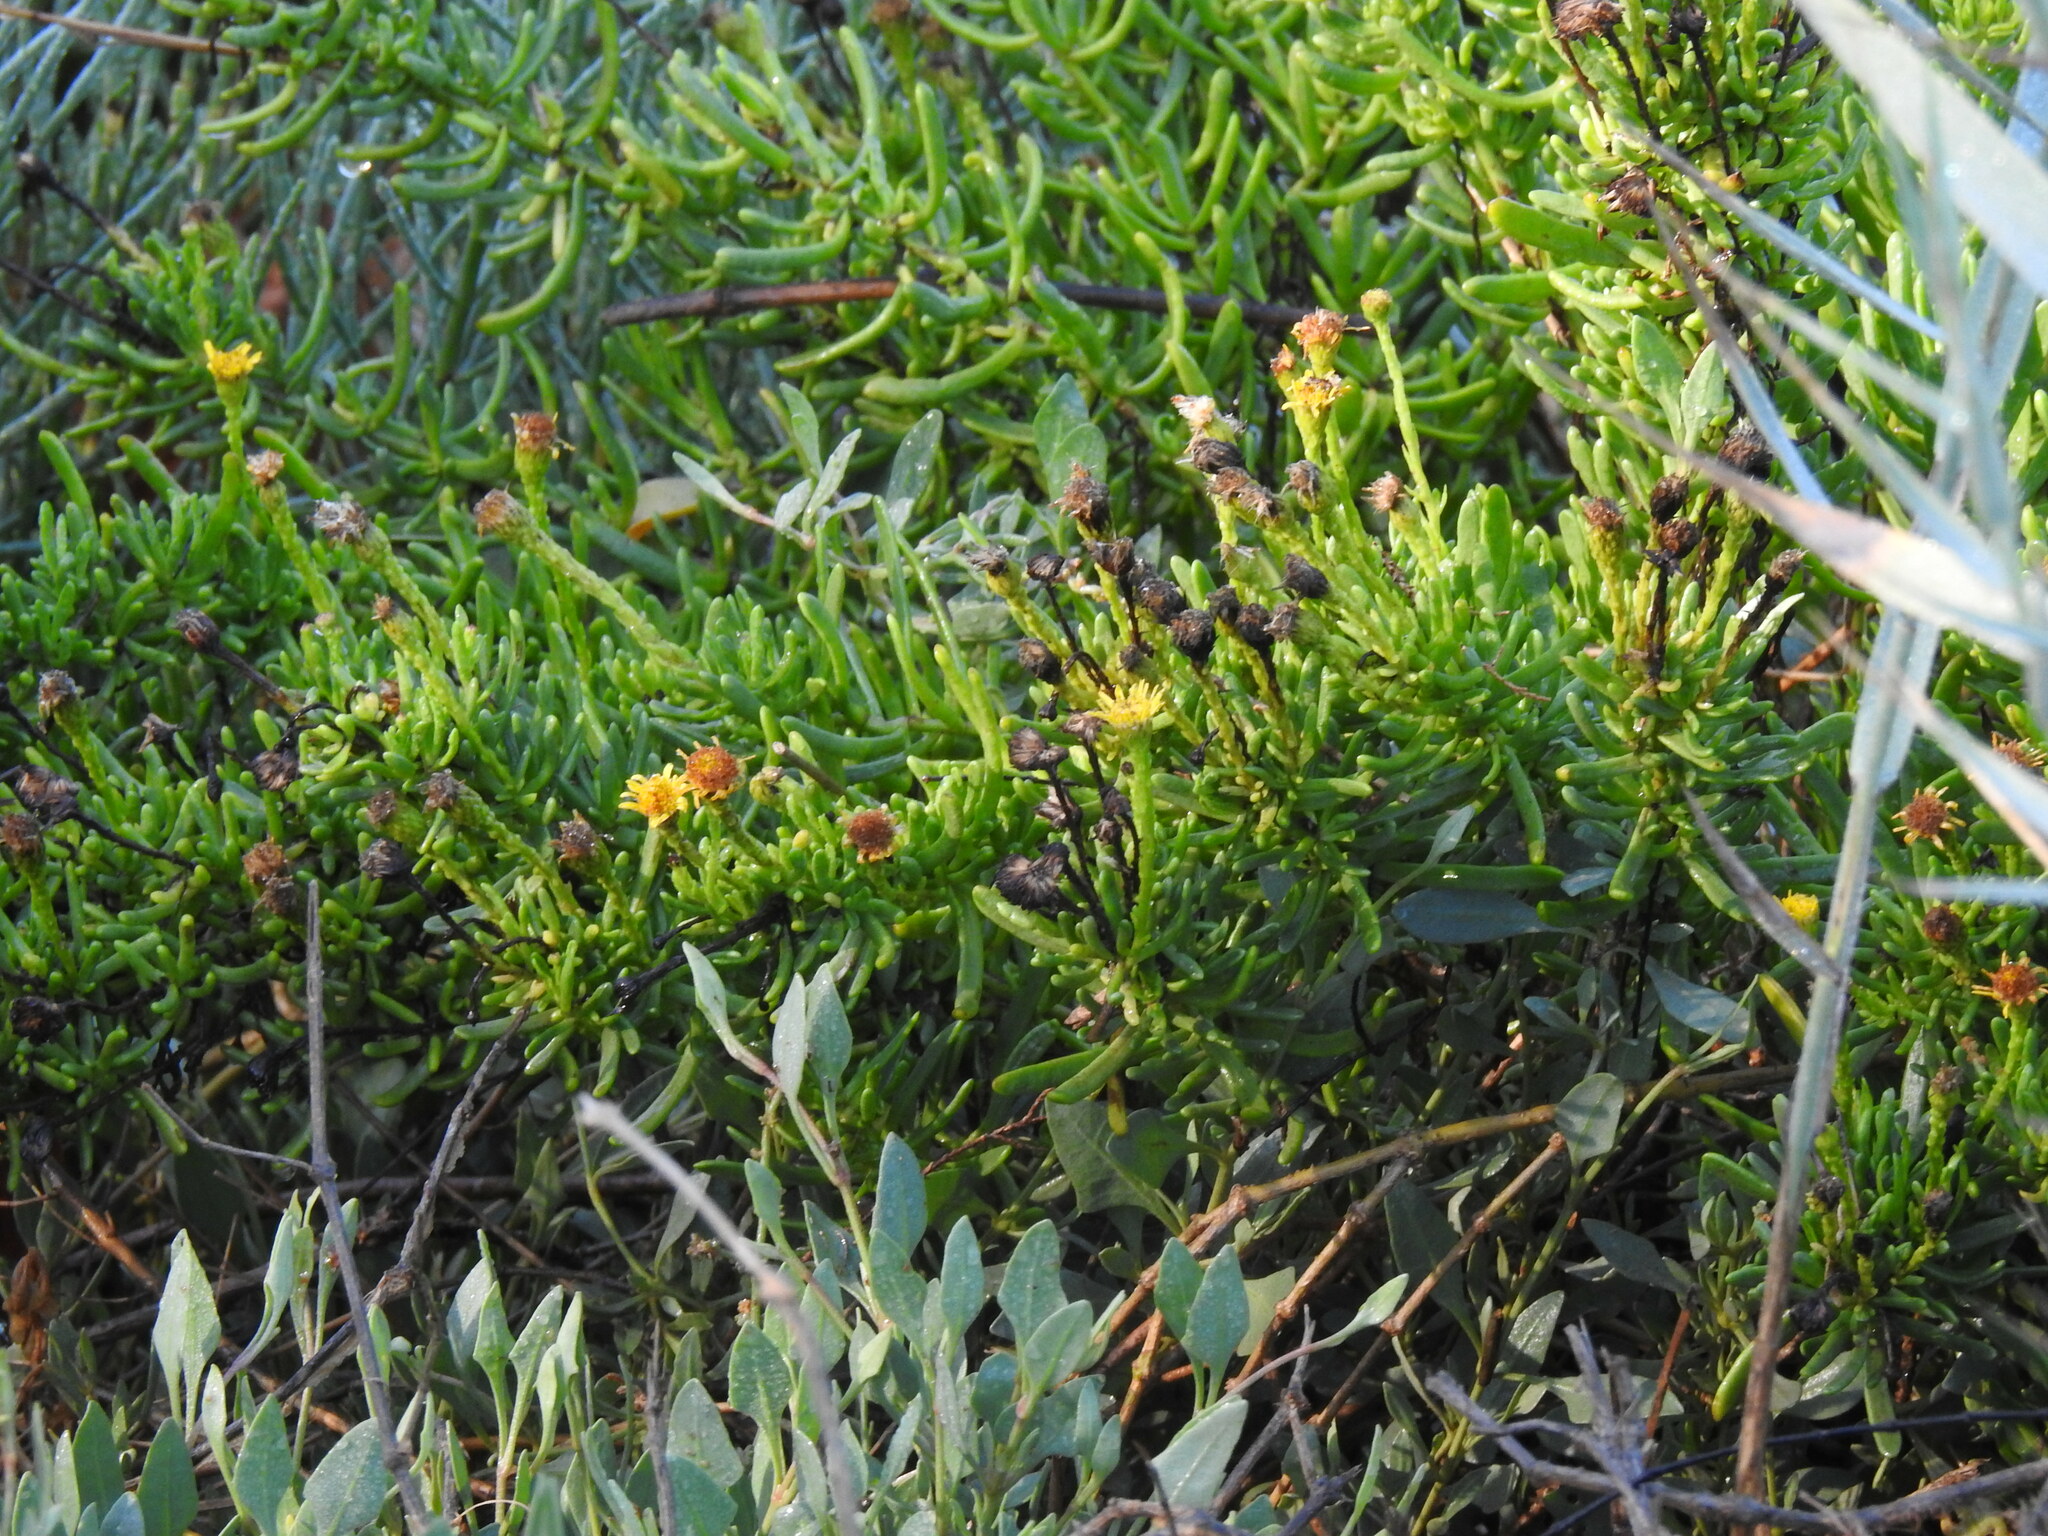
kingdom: Plantae
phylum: Tracheophyta
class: Magnoliopsida
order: Asterales
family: Asteraceae
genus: Limbarda
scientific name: Limbarda crithmoides
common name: Golden samphire
